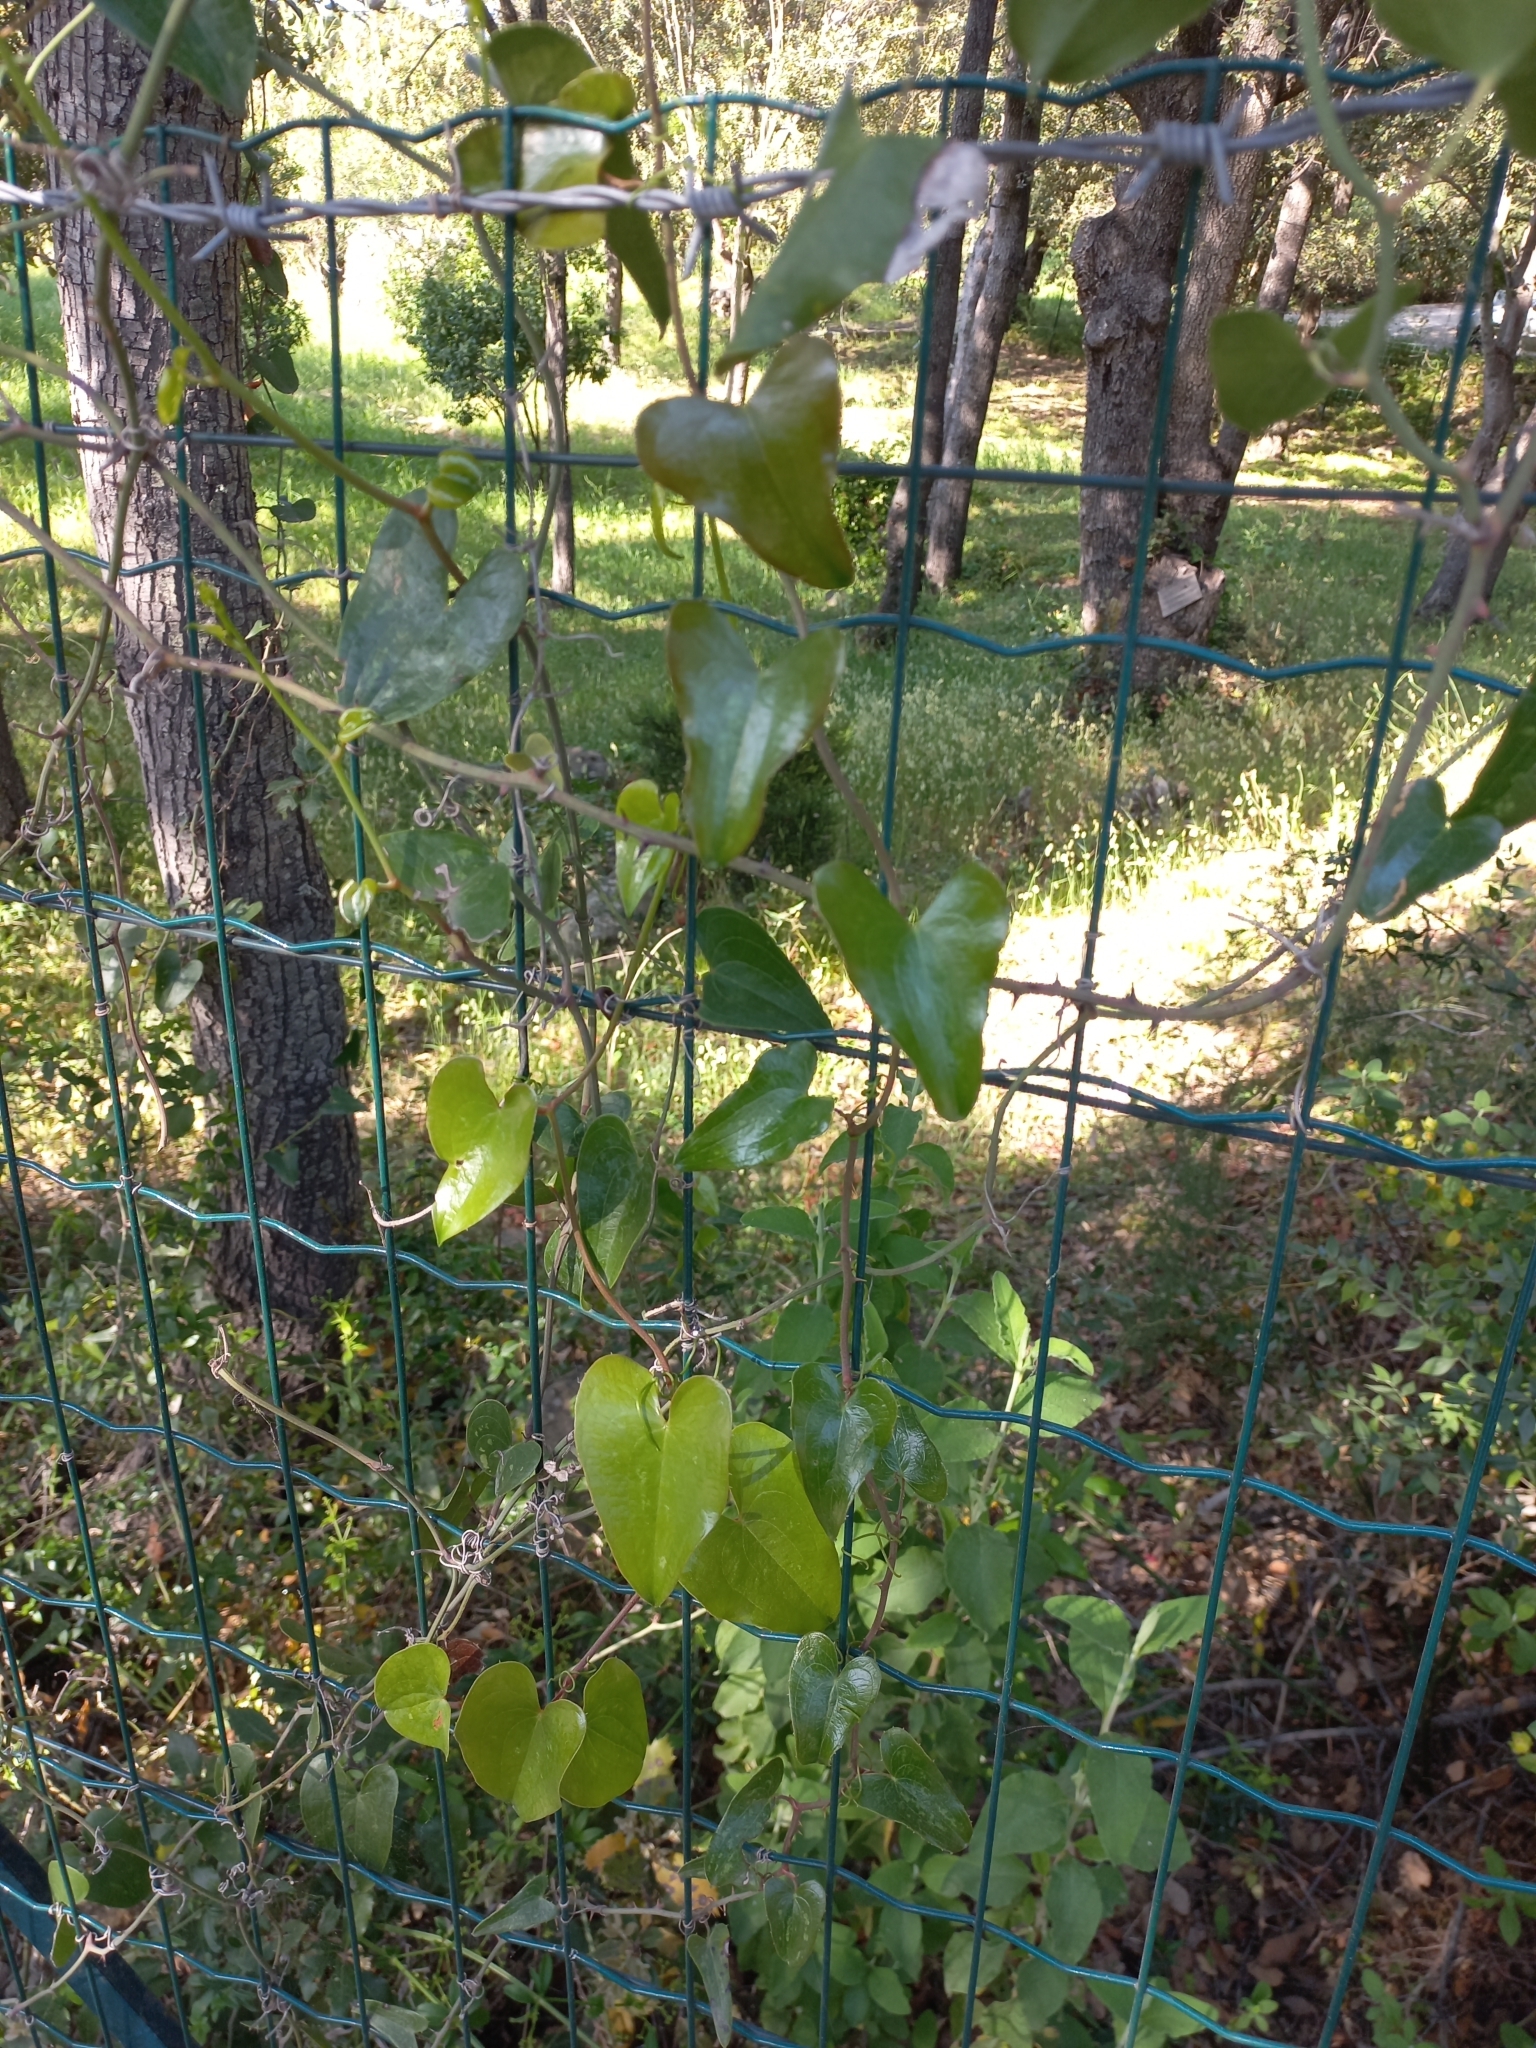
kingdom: Plantae
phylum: Tracheophyta
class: Liliopsida
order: Liliales
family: Smilacaceae
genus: Smilax
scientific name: Smilax aspera
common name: Common smilax
